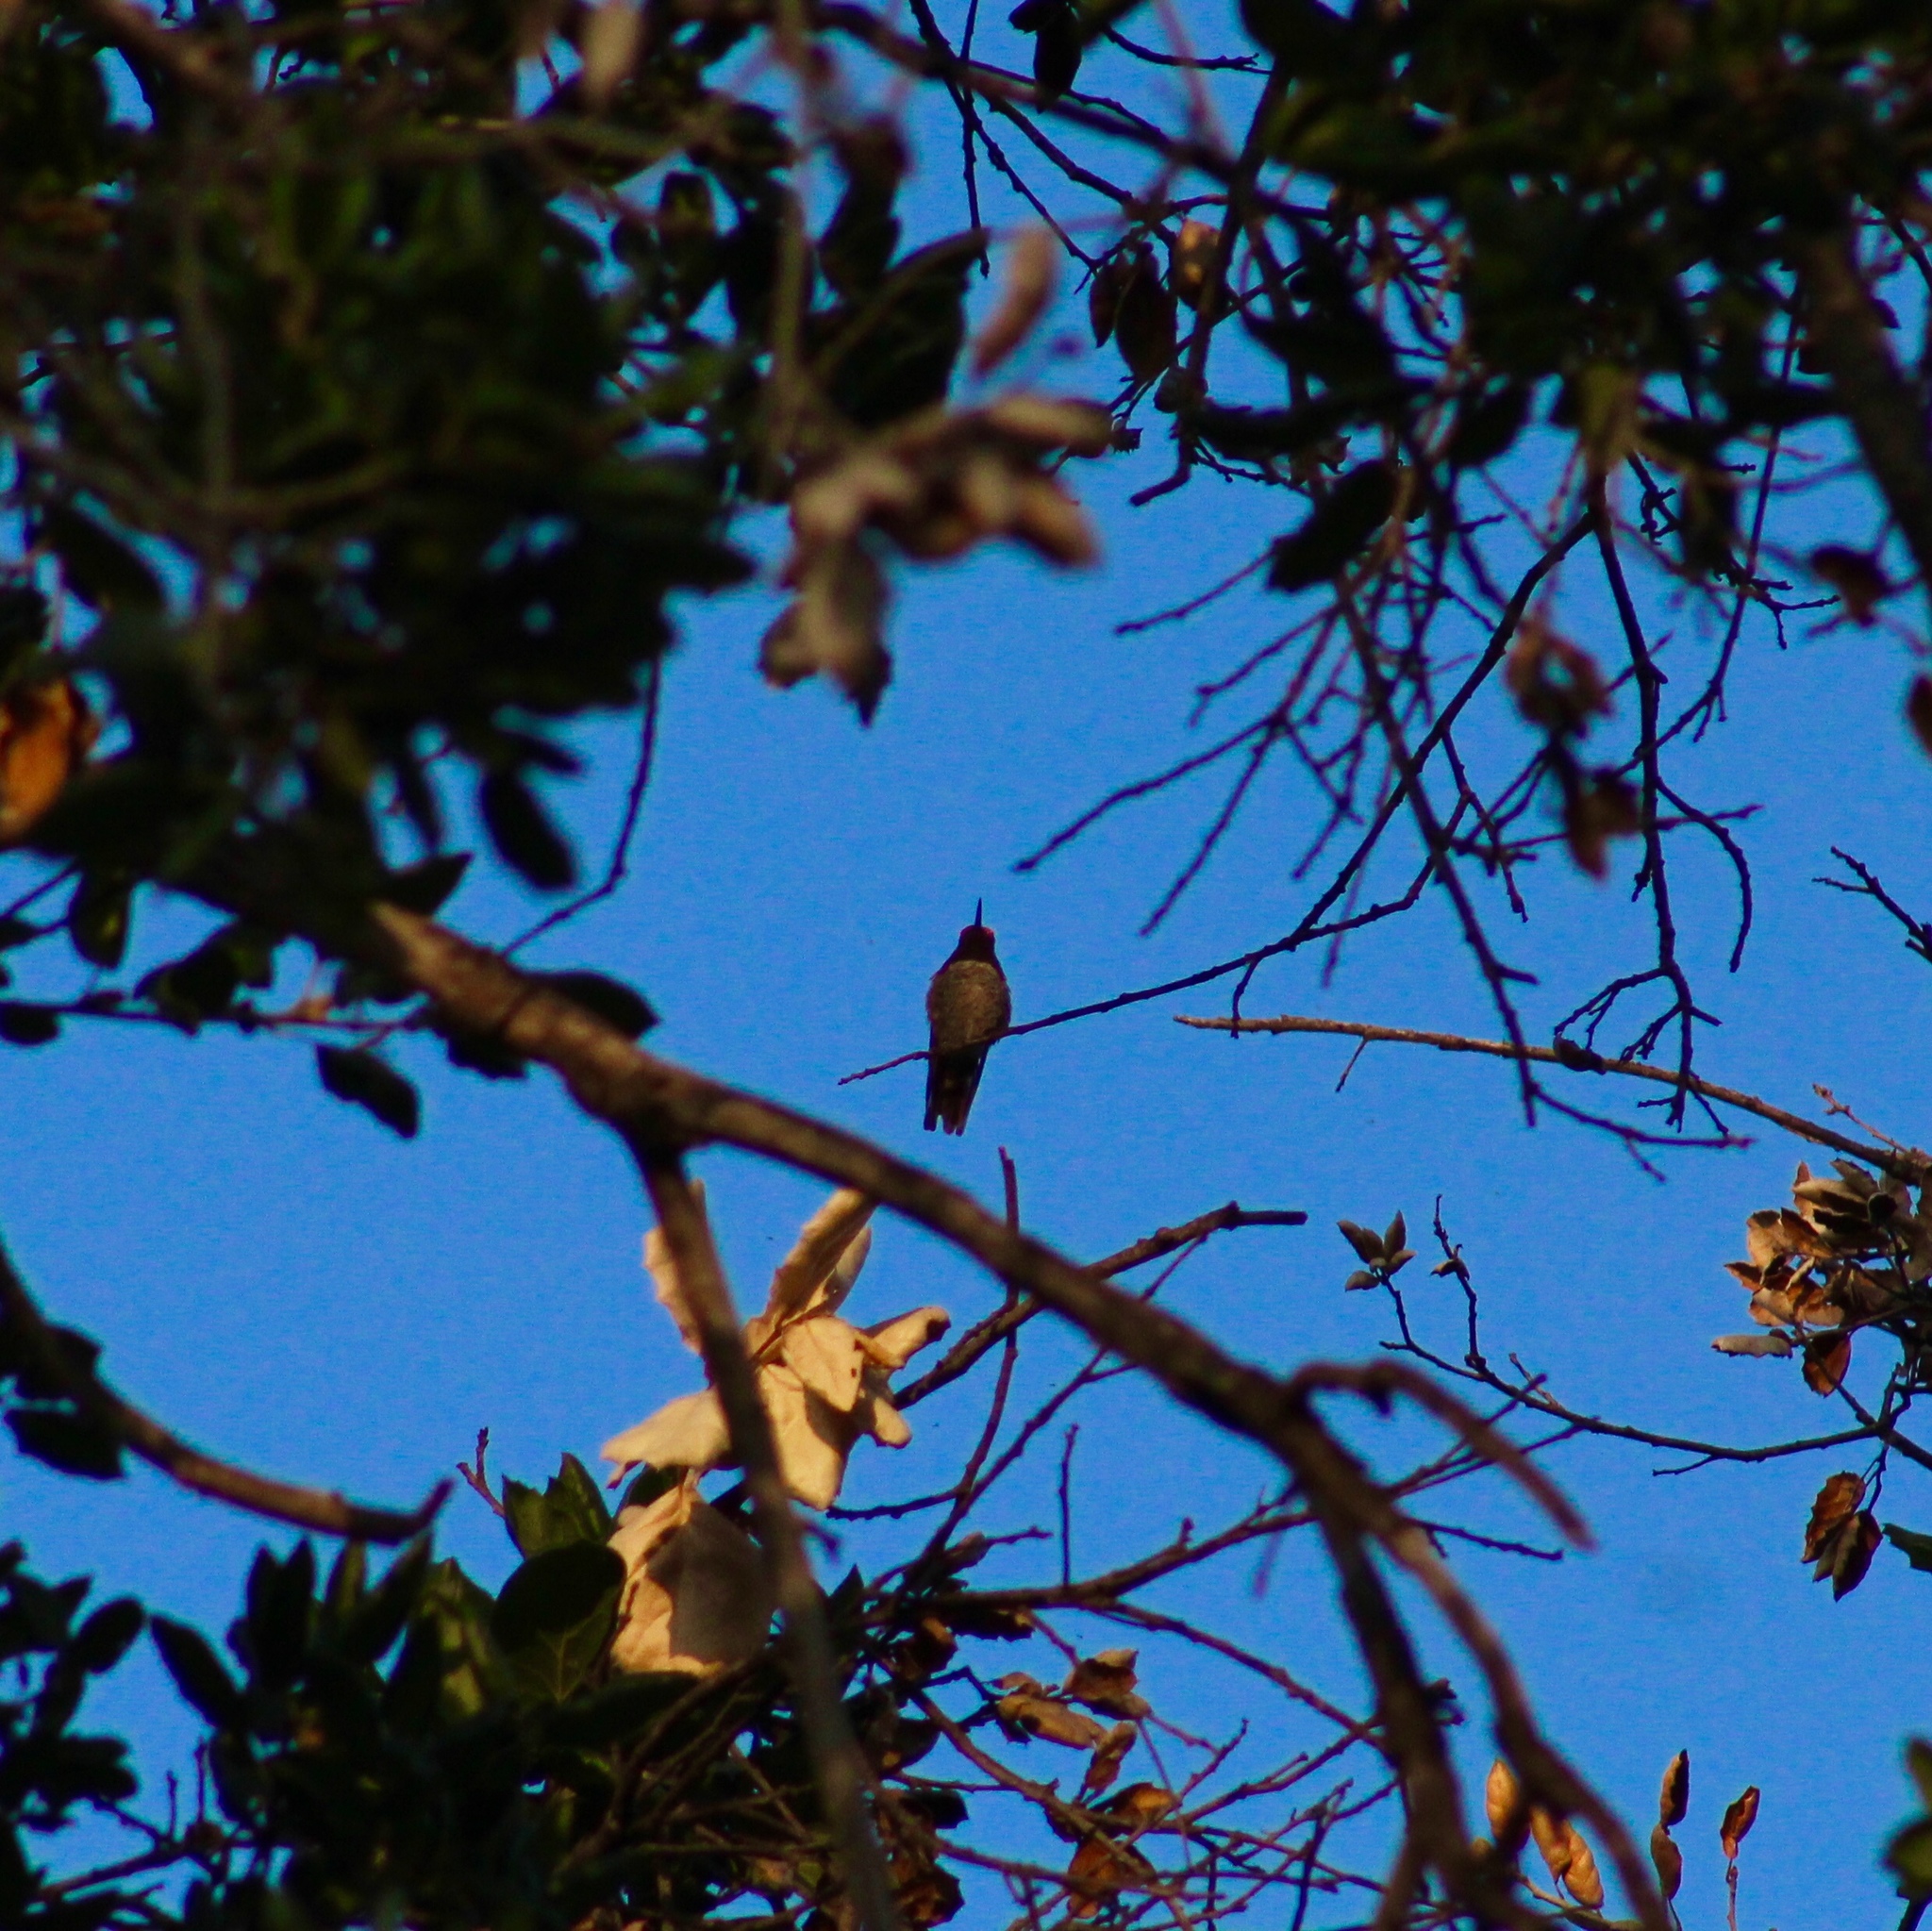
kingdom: Animalia
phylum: Chordata
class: Aves
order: Apodiformes
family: Trochilidae
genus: Calypte
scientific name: Calypte anna
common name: Anna's hummingbird
